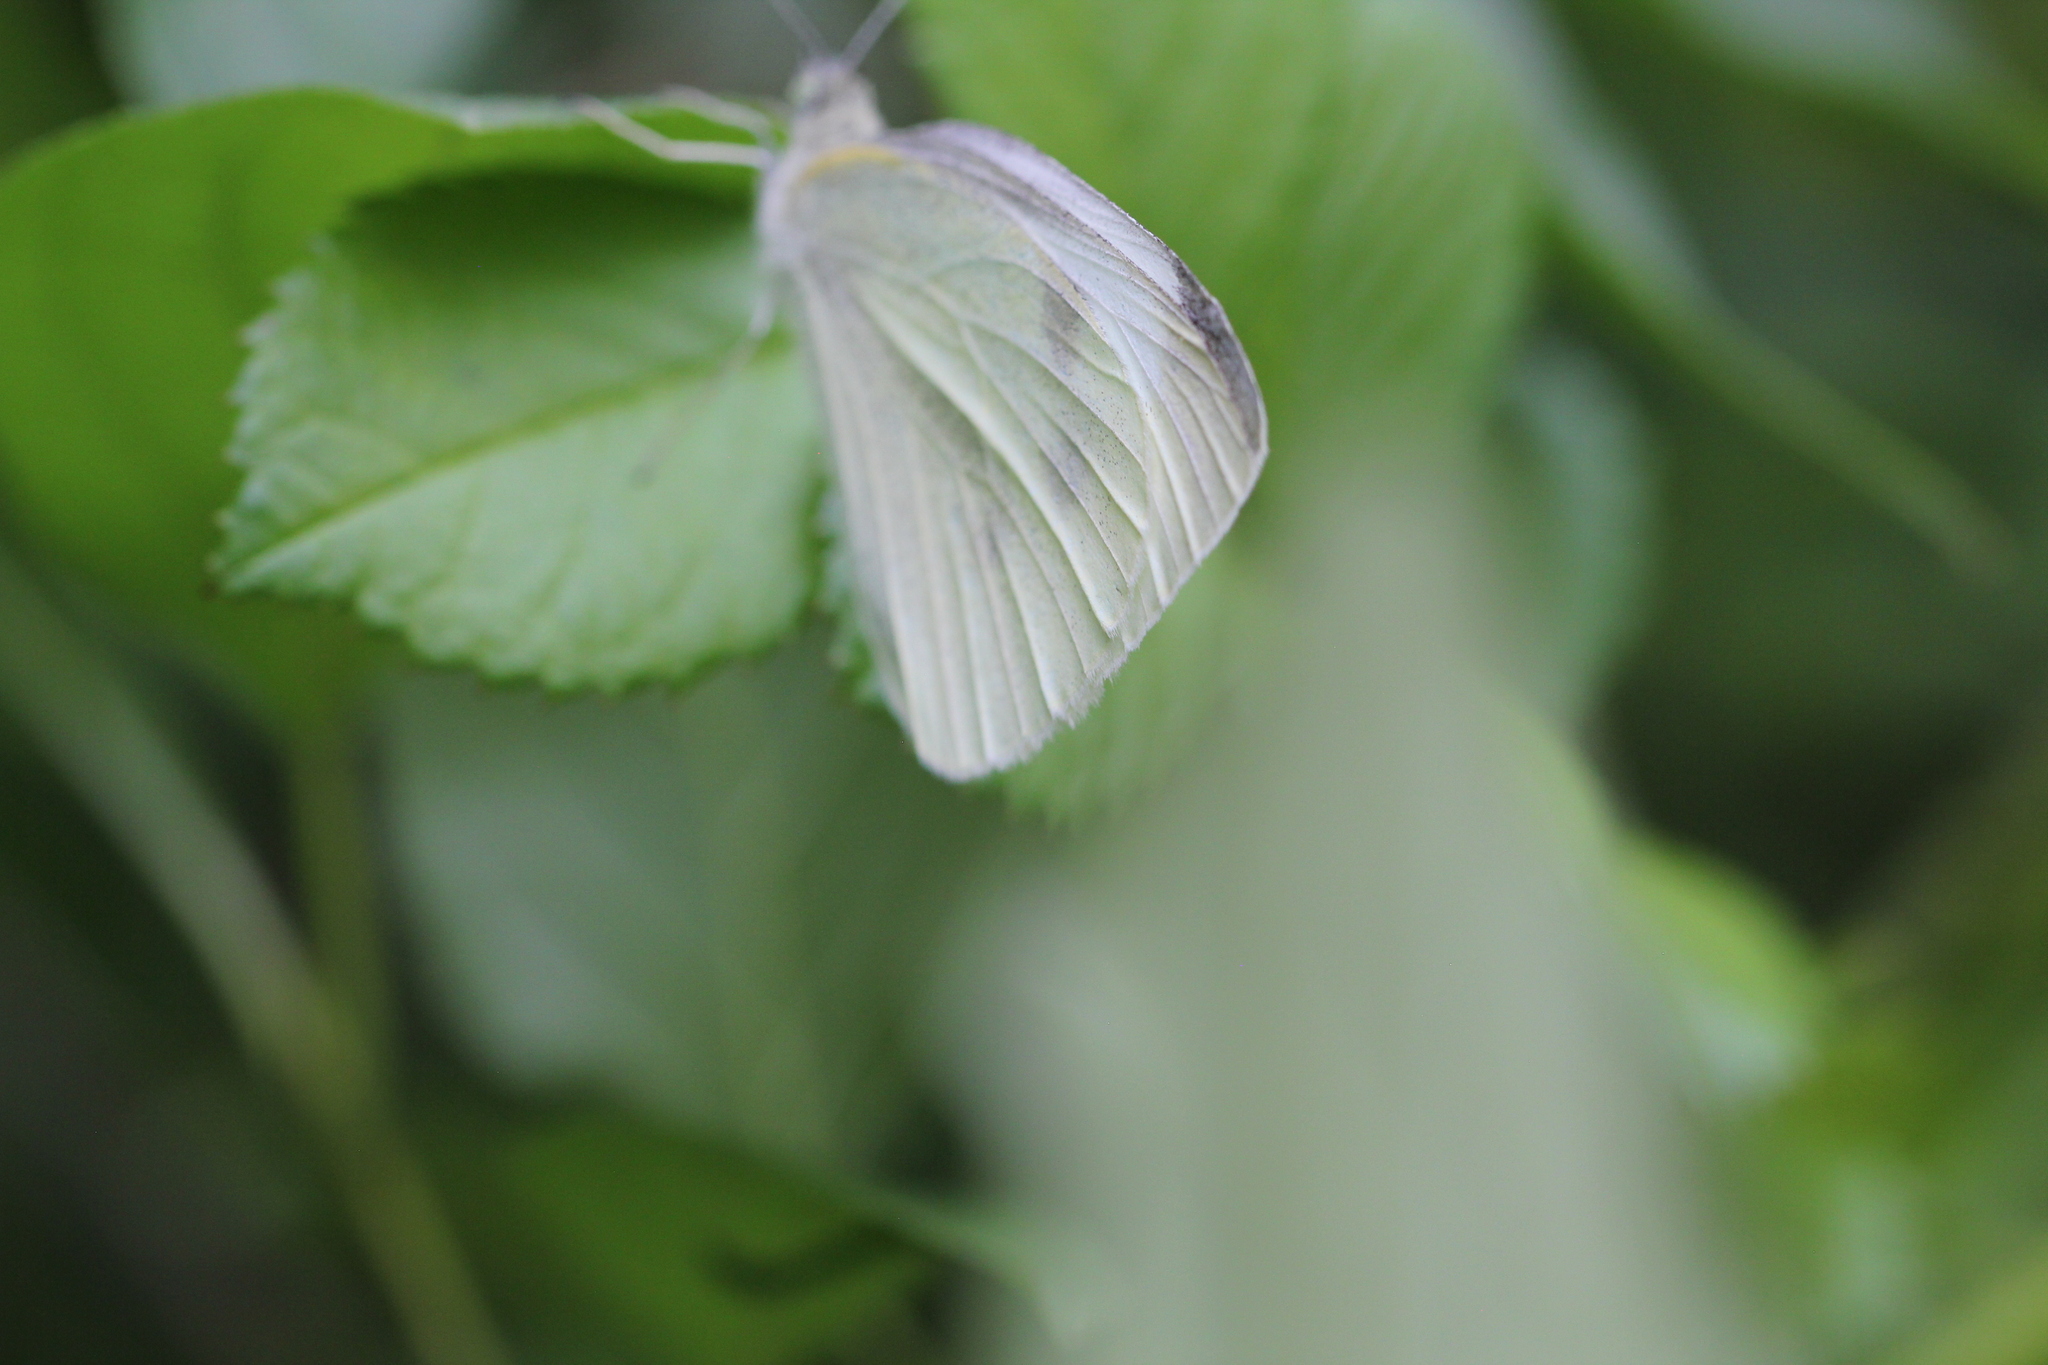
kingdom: Animalia
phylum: Arthropoda
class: Insecta
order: Lepidoptera
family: Pieridae
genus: Pieris
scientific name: Pieris rapae
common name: Small white
